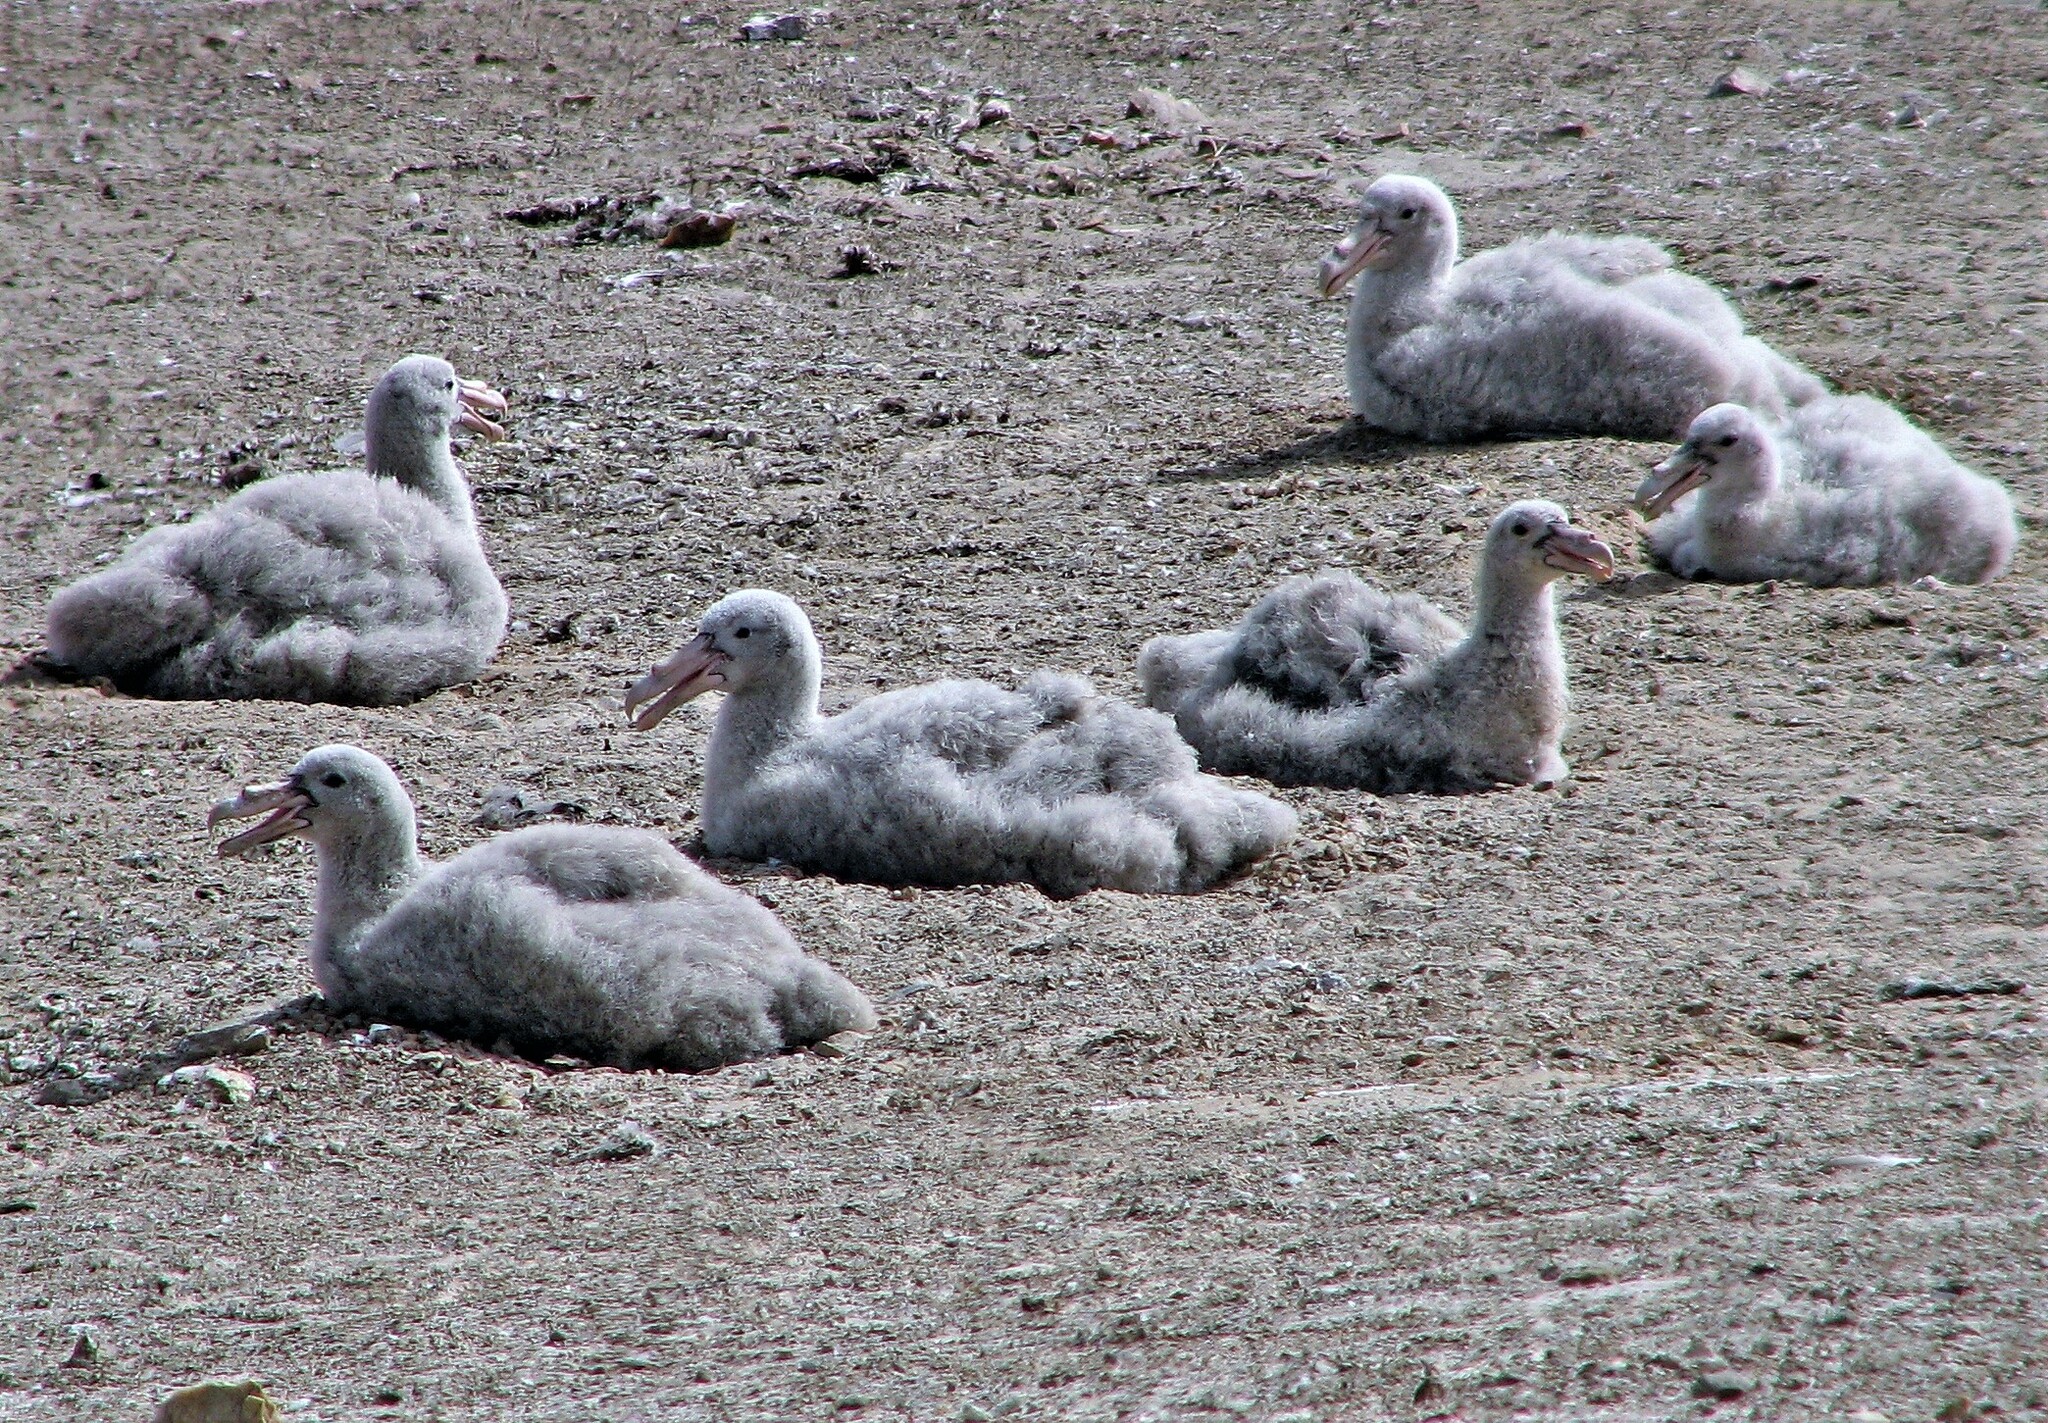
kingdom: Animalia
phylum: Chordata
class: Aves
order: Procellariiformes
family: Procellariidae
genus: Macronectes
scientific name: Macronectes giganteus
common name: Southern giant petrel
